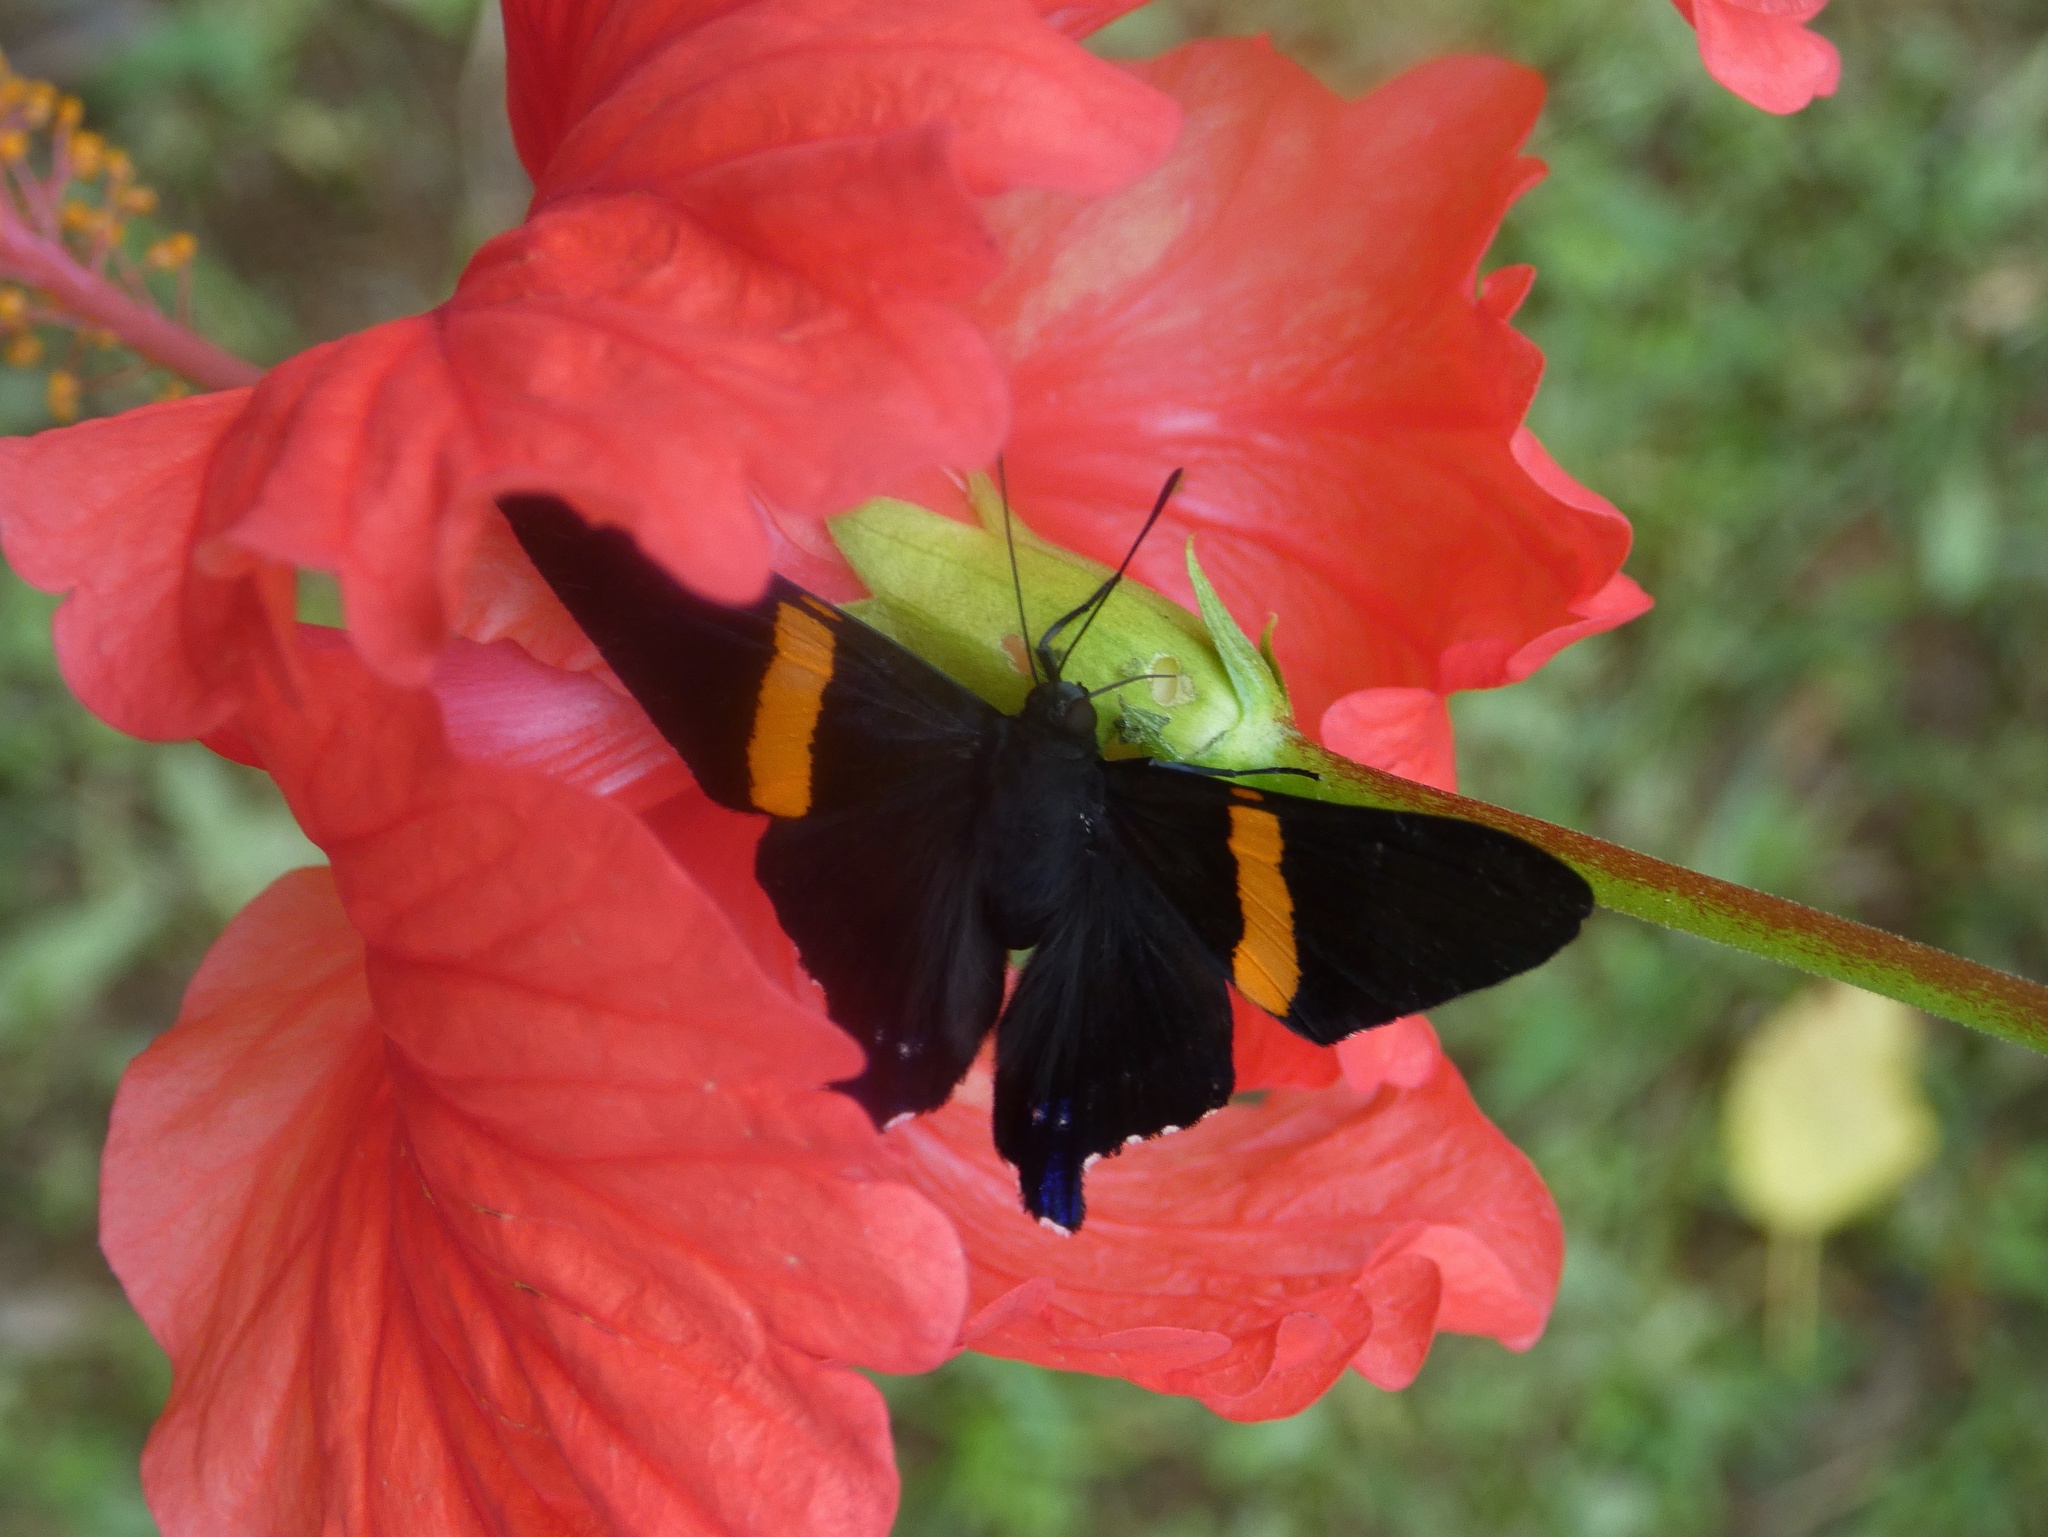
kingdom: Animalia
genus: Ancyluris
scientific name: Ancyluris inca
